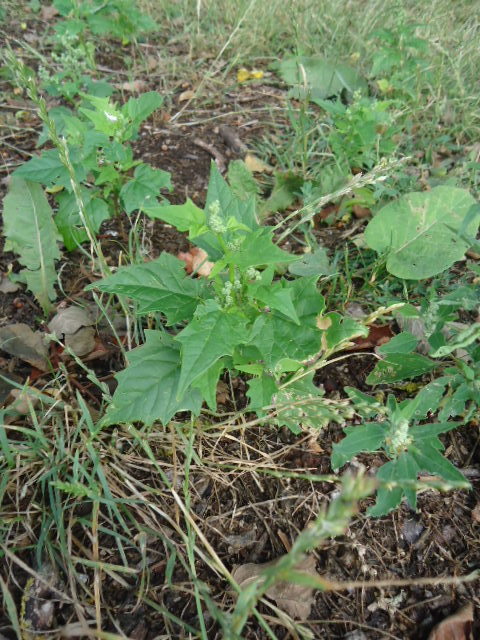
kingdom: Plantae
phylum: Tracheophyta
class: Magnoliopsida
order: Caryophyllales
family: Amaranthaceae
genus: Chenopodiastrum
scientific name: Chenopodiastrum hybridum
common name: Mapleleaf goosefoot
